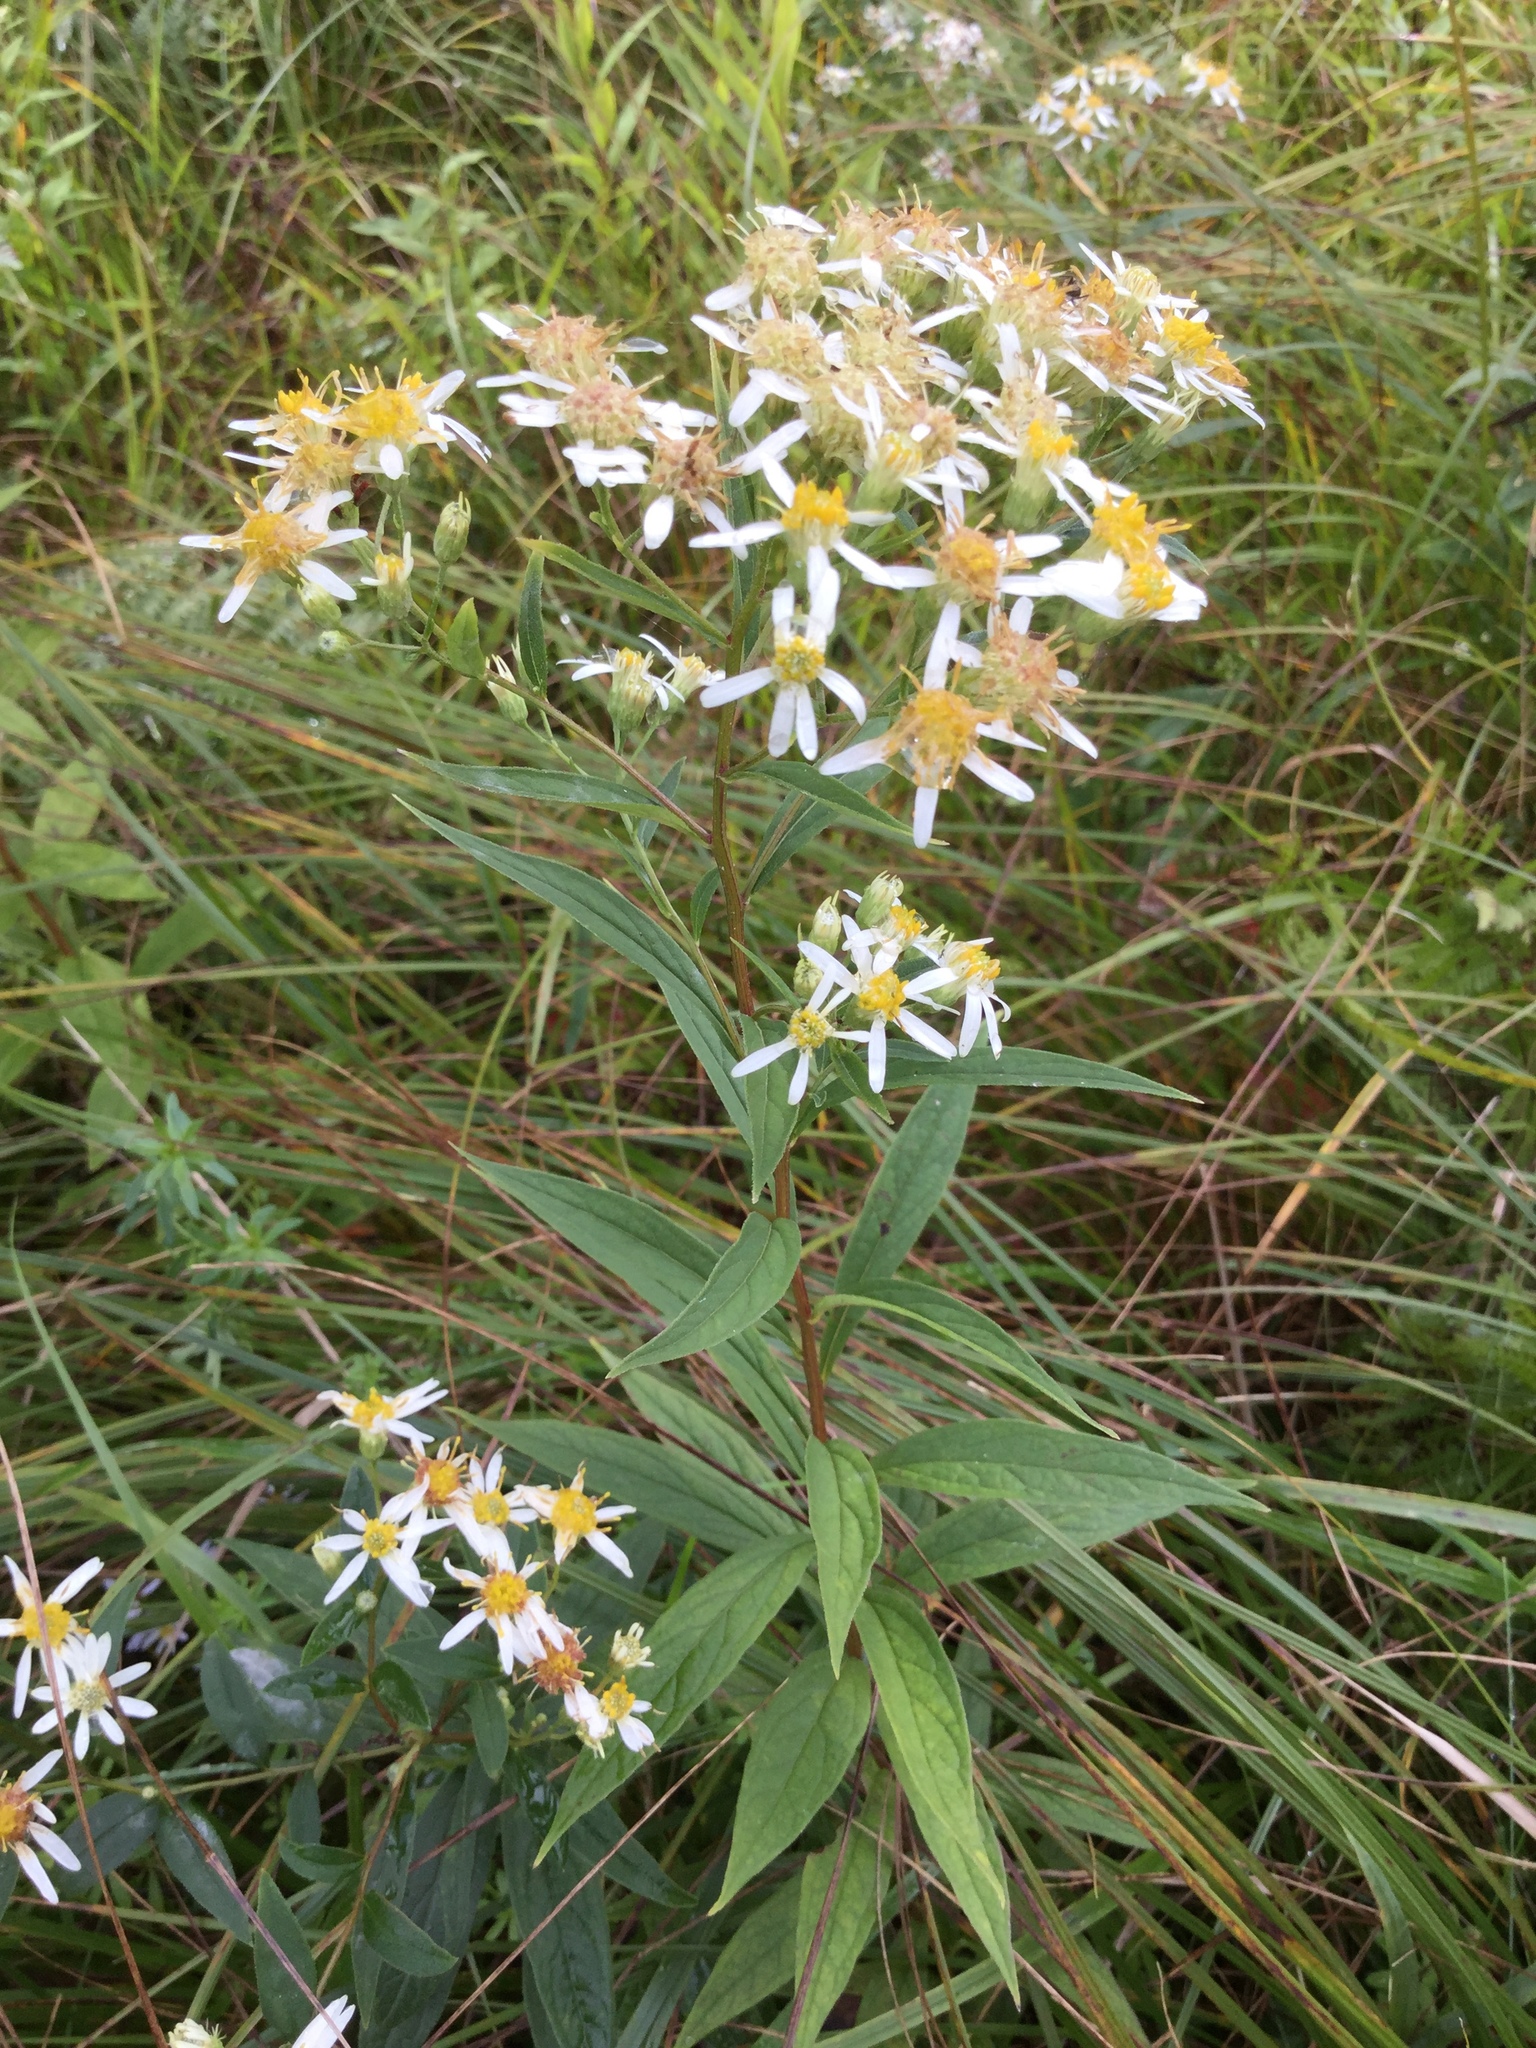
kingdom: Plantae
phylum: Tracheophyta
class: Magnoliopsida
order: Asterales
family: Asteraceae
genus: Doellingeria
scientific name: Doellingeria umbellata
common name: Flat-top white aster
